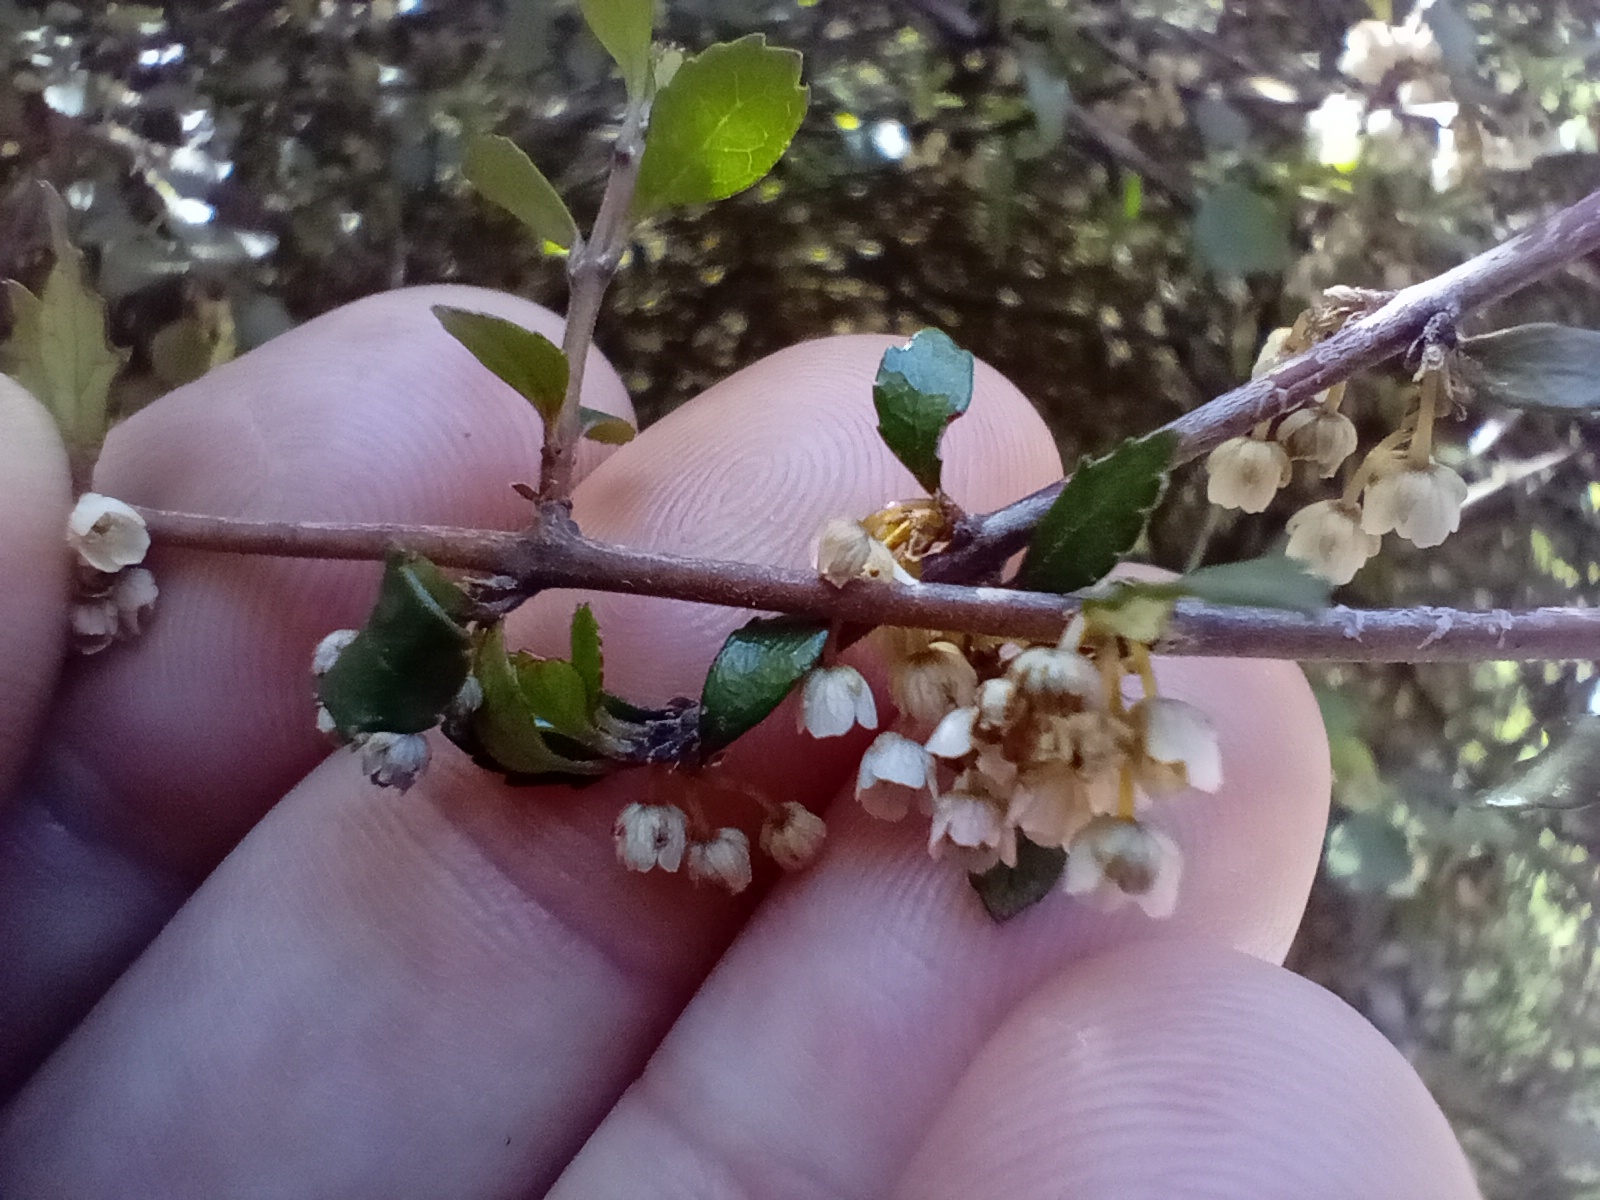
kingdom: Plantae
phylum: Tracheophyta
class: Magnoliopsida
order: Oxalidales
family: Elaeocarpaceae
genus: Aristotelia
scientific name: Aristotelia fruticosa
